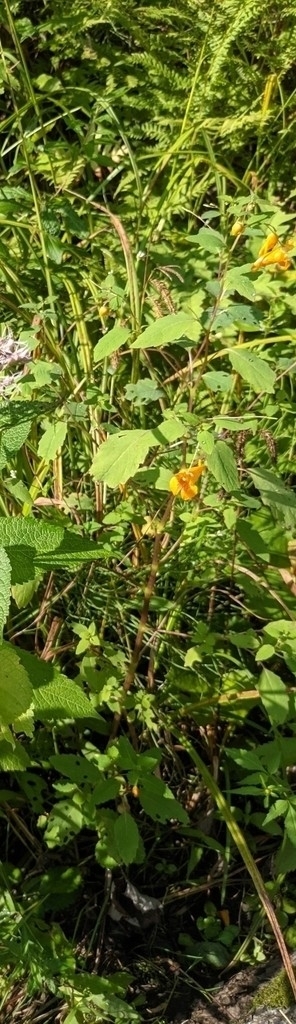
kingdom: Plantae
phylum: Tracheophyta
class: Magnoliopsida
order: Ericales
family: Balsaminaceae
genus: Impatiens
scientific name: Impatiens capensis
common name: Orange balsam
